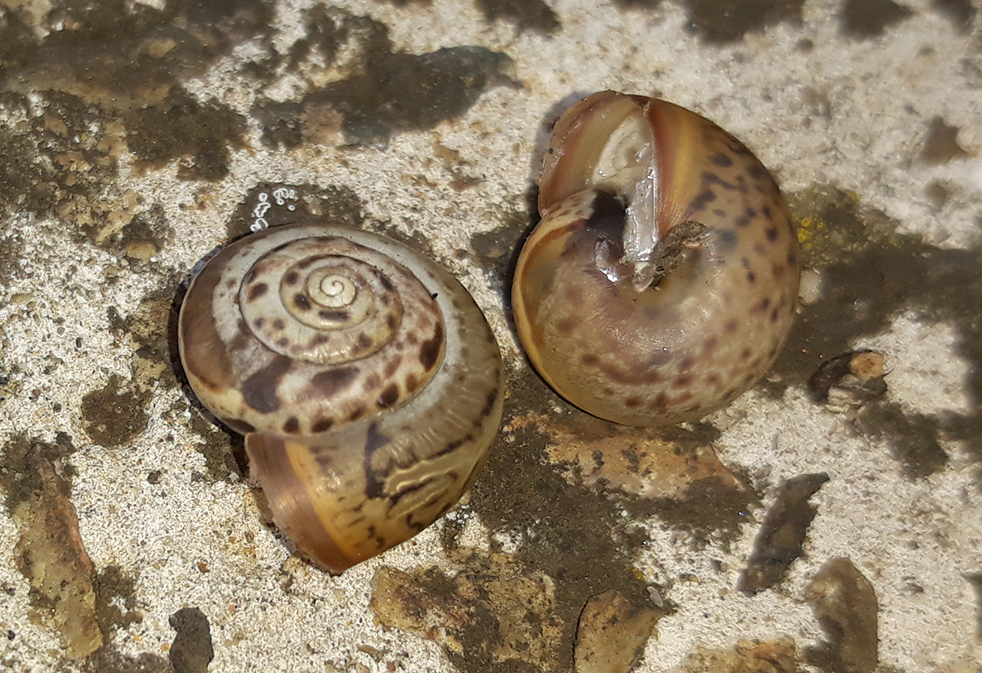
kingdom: Animalia
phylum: Mollusca
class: Gastropoda
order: Stylommatophora
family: Hygromiidae
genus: Monacha
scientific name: Monacha cartusiana
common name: Carthusian snail
